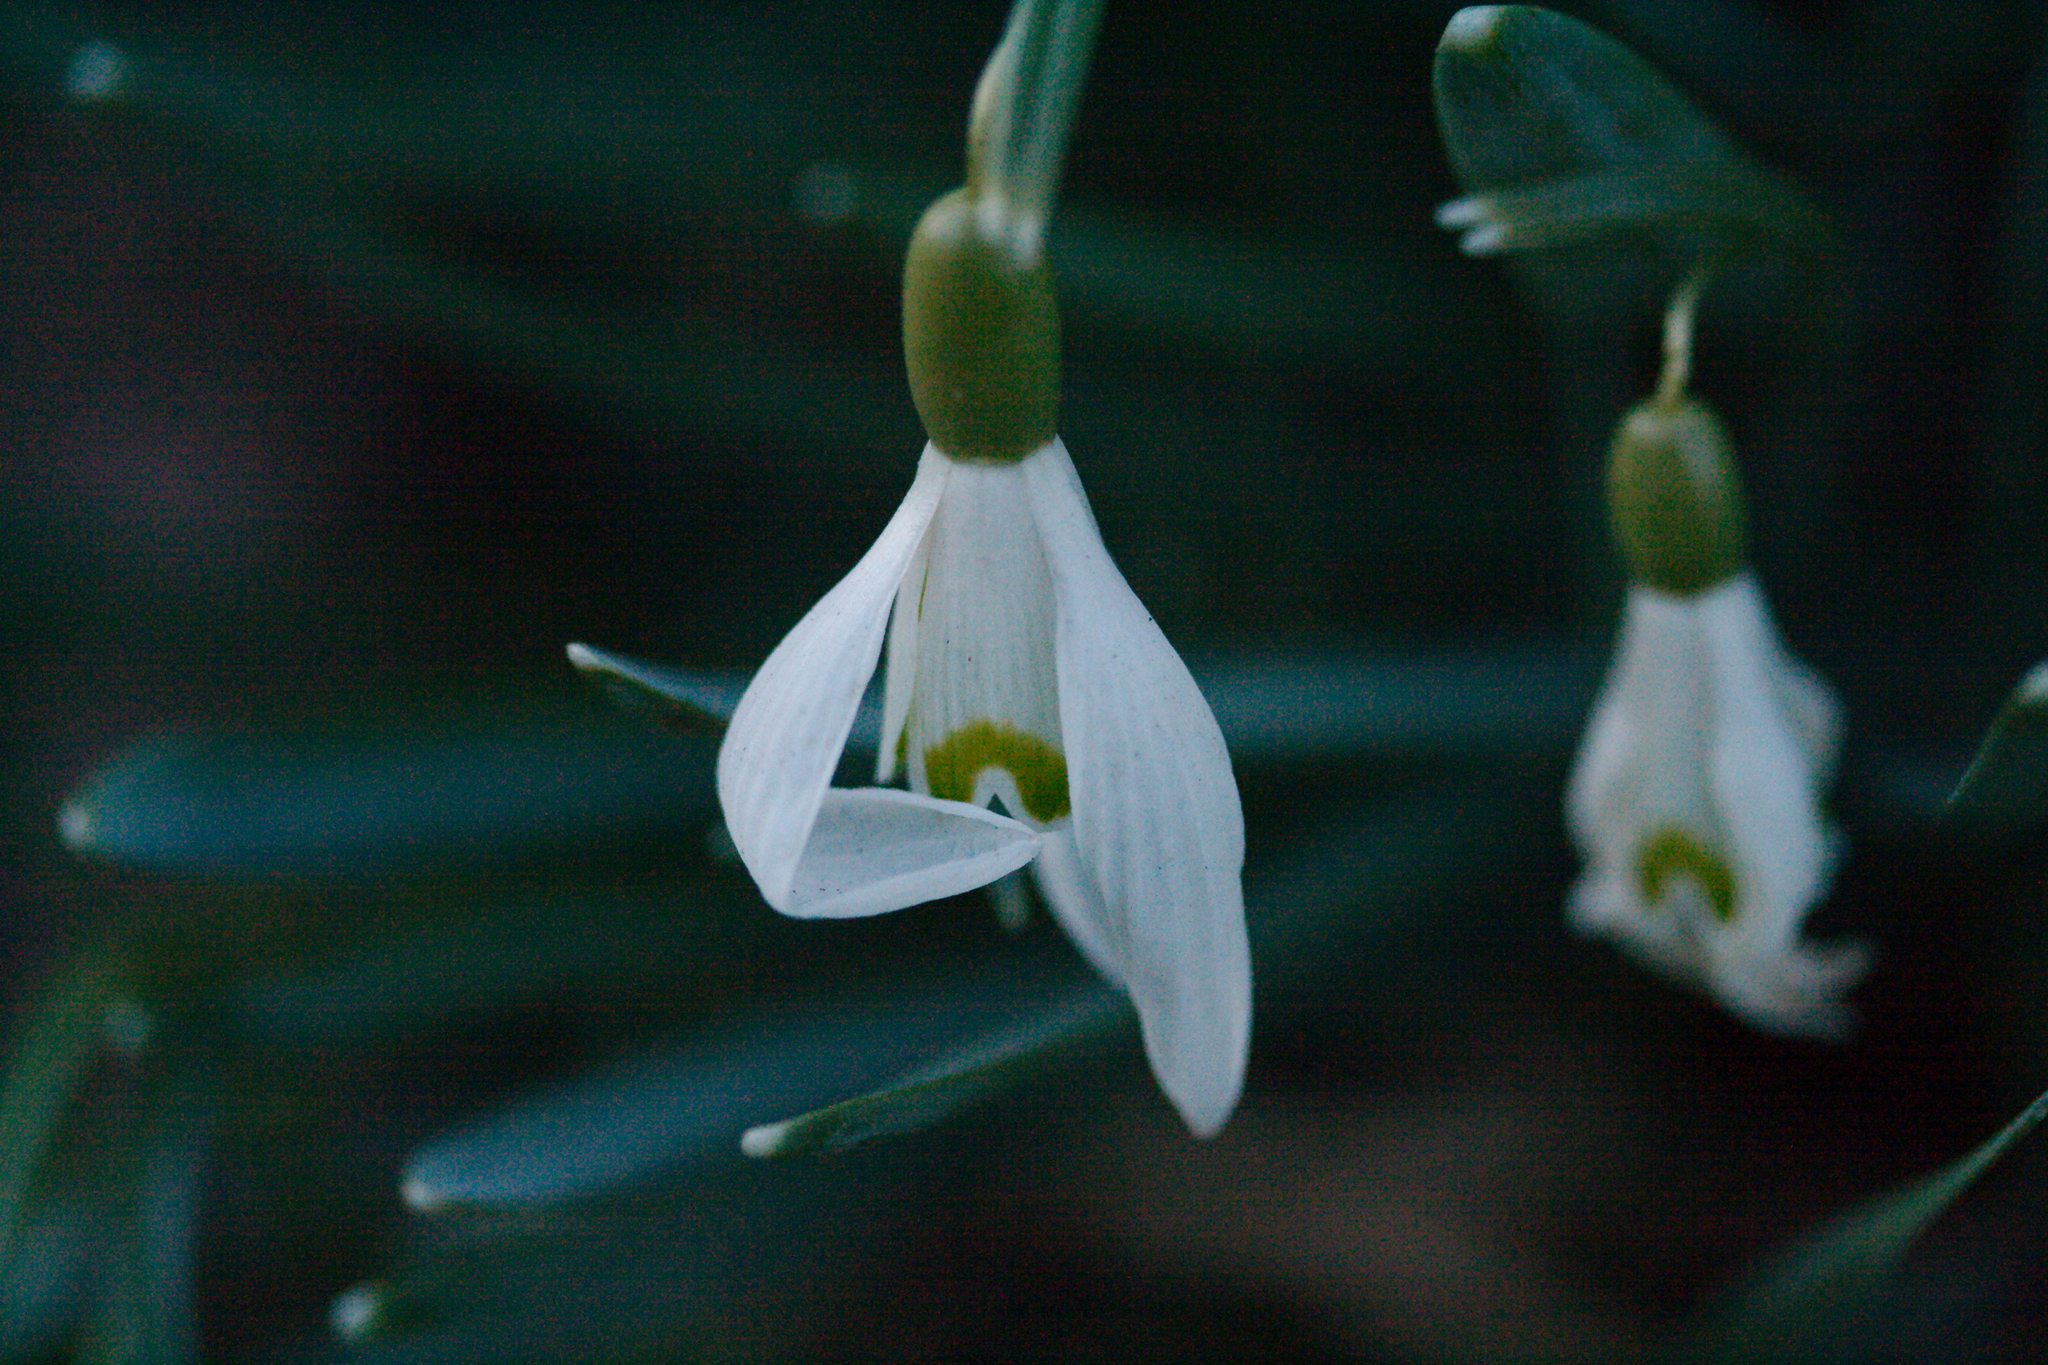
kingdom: Plantae
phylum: Tracheophyta
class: Liliopsida
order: Asparagales
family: Amaryllidaceae
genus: Galanthus
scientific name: Galanthus nivalis
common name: Snowdrop
